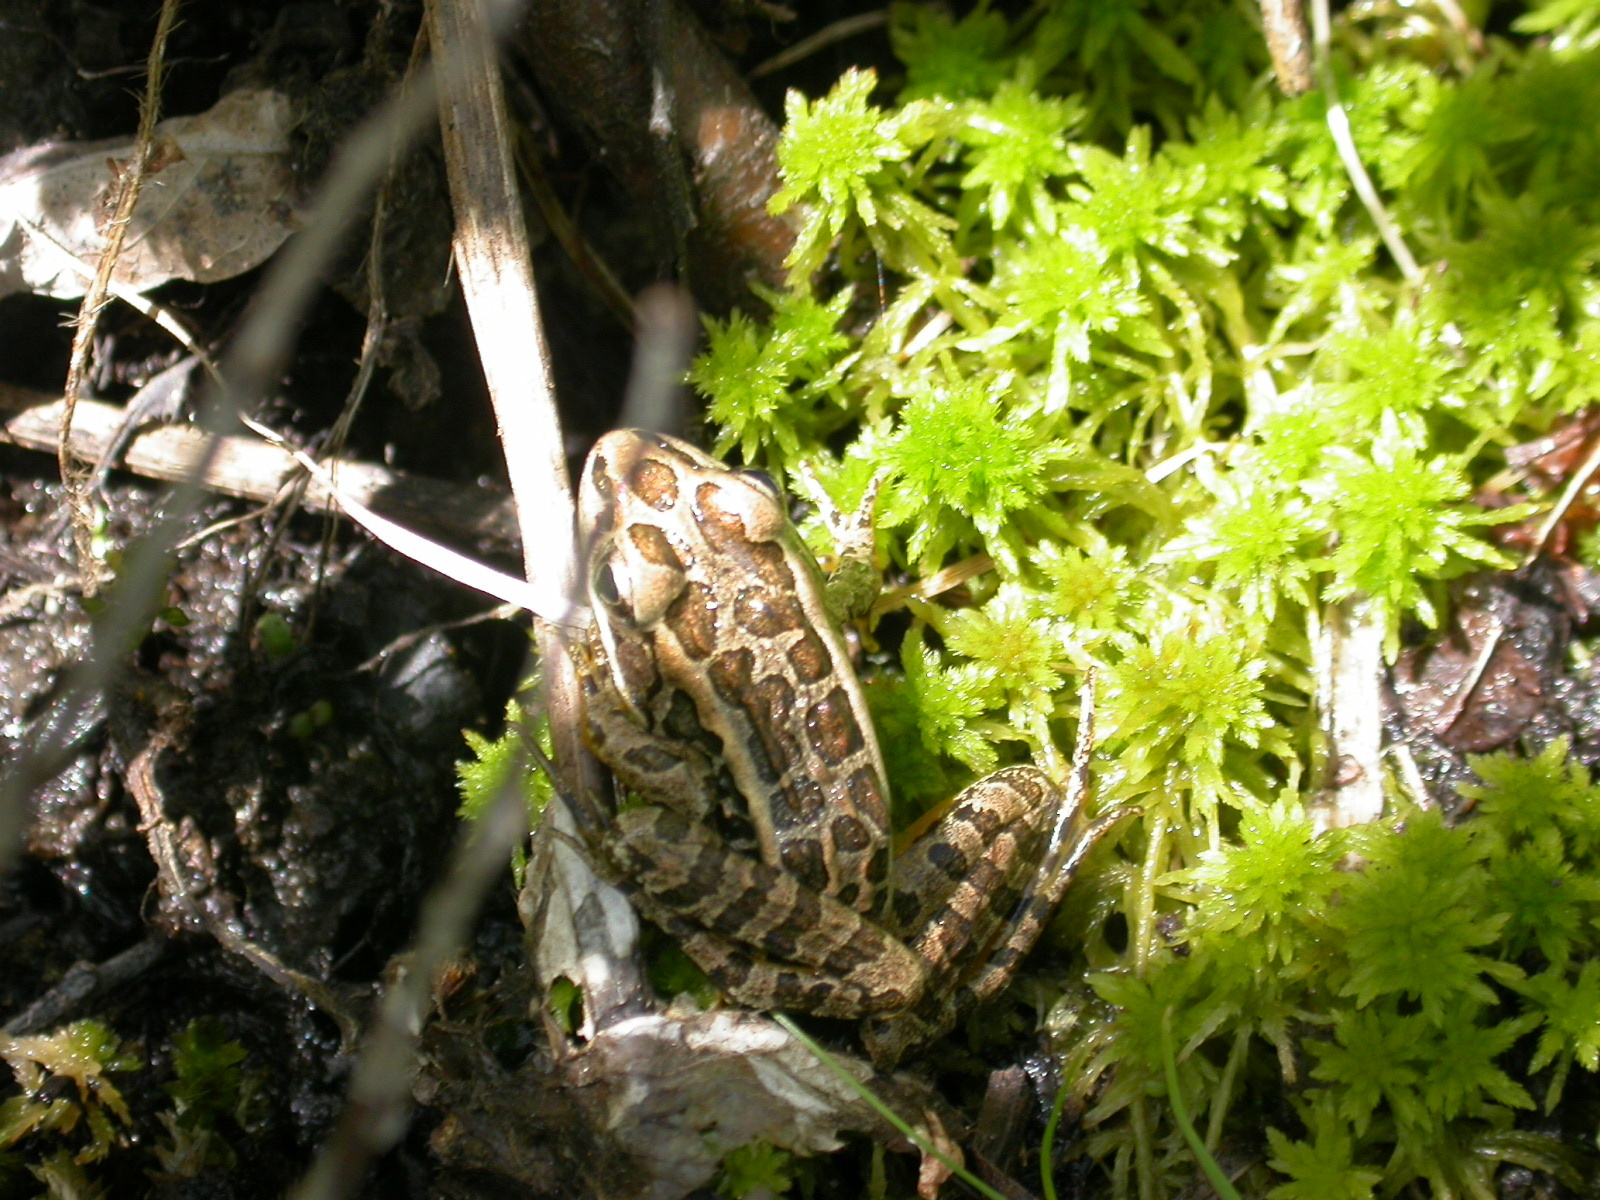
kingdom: Animalia
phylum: Chordata
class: Amphibia
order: Anura
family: Ranidae
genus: Lithobates
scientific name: Lithobates palustris
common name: Pickerel frog
